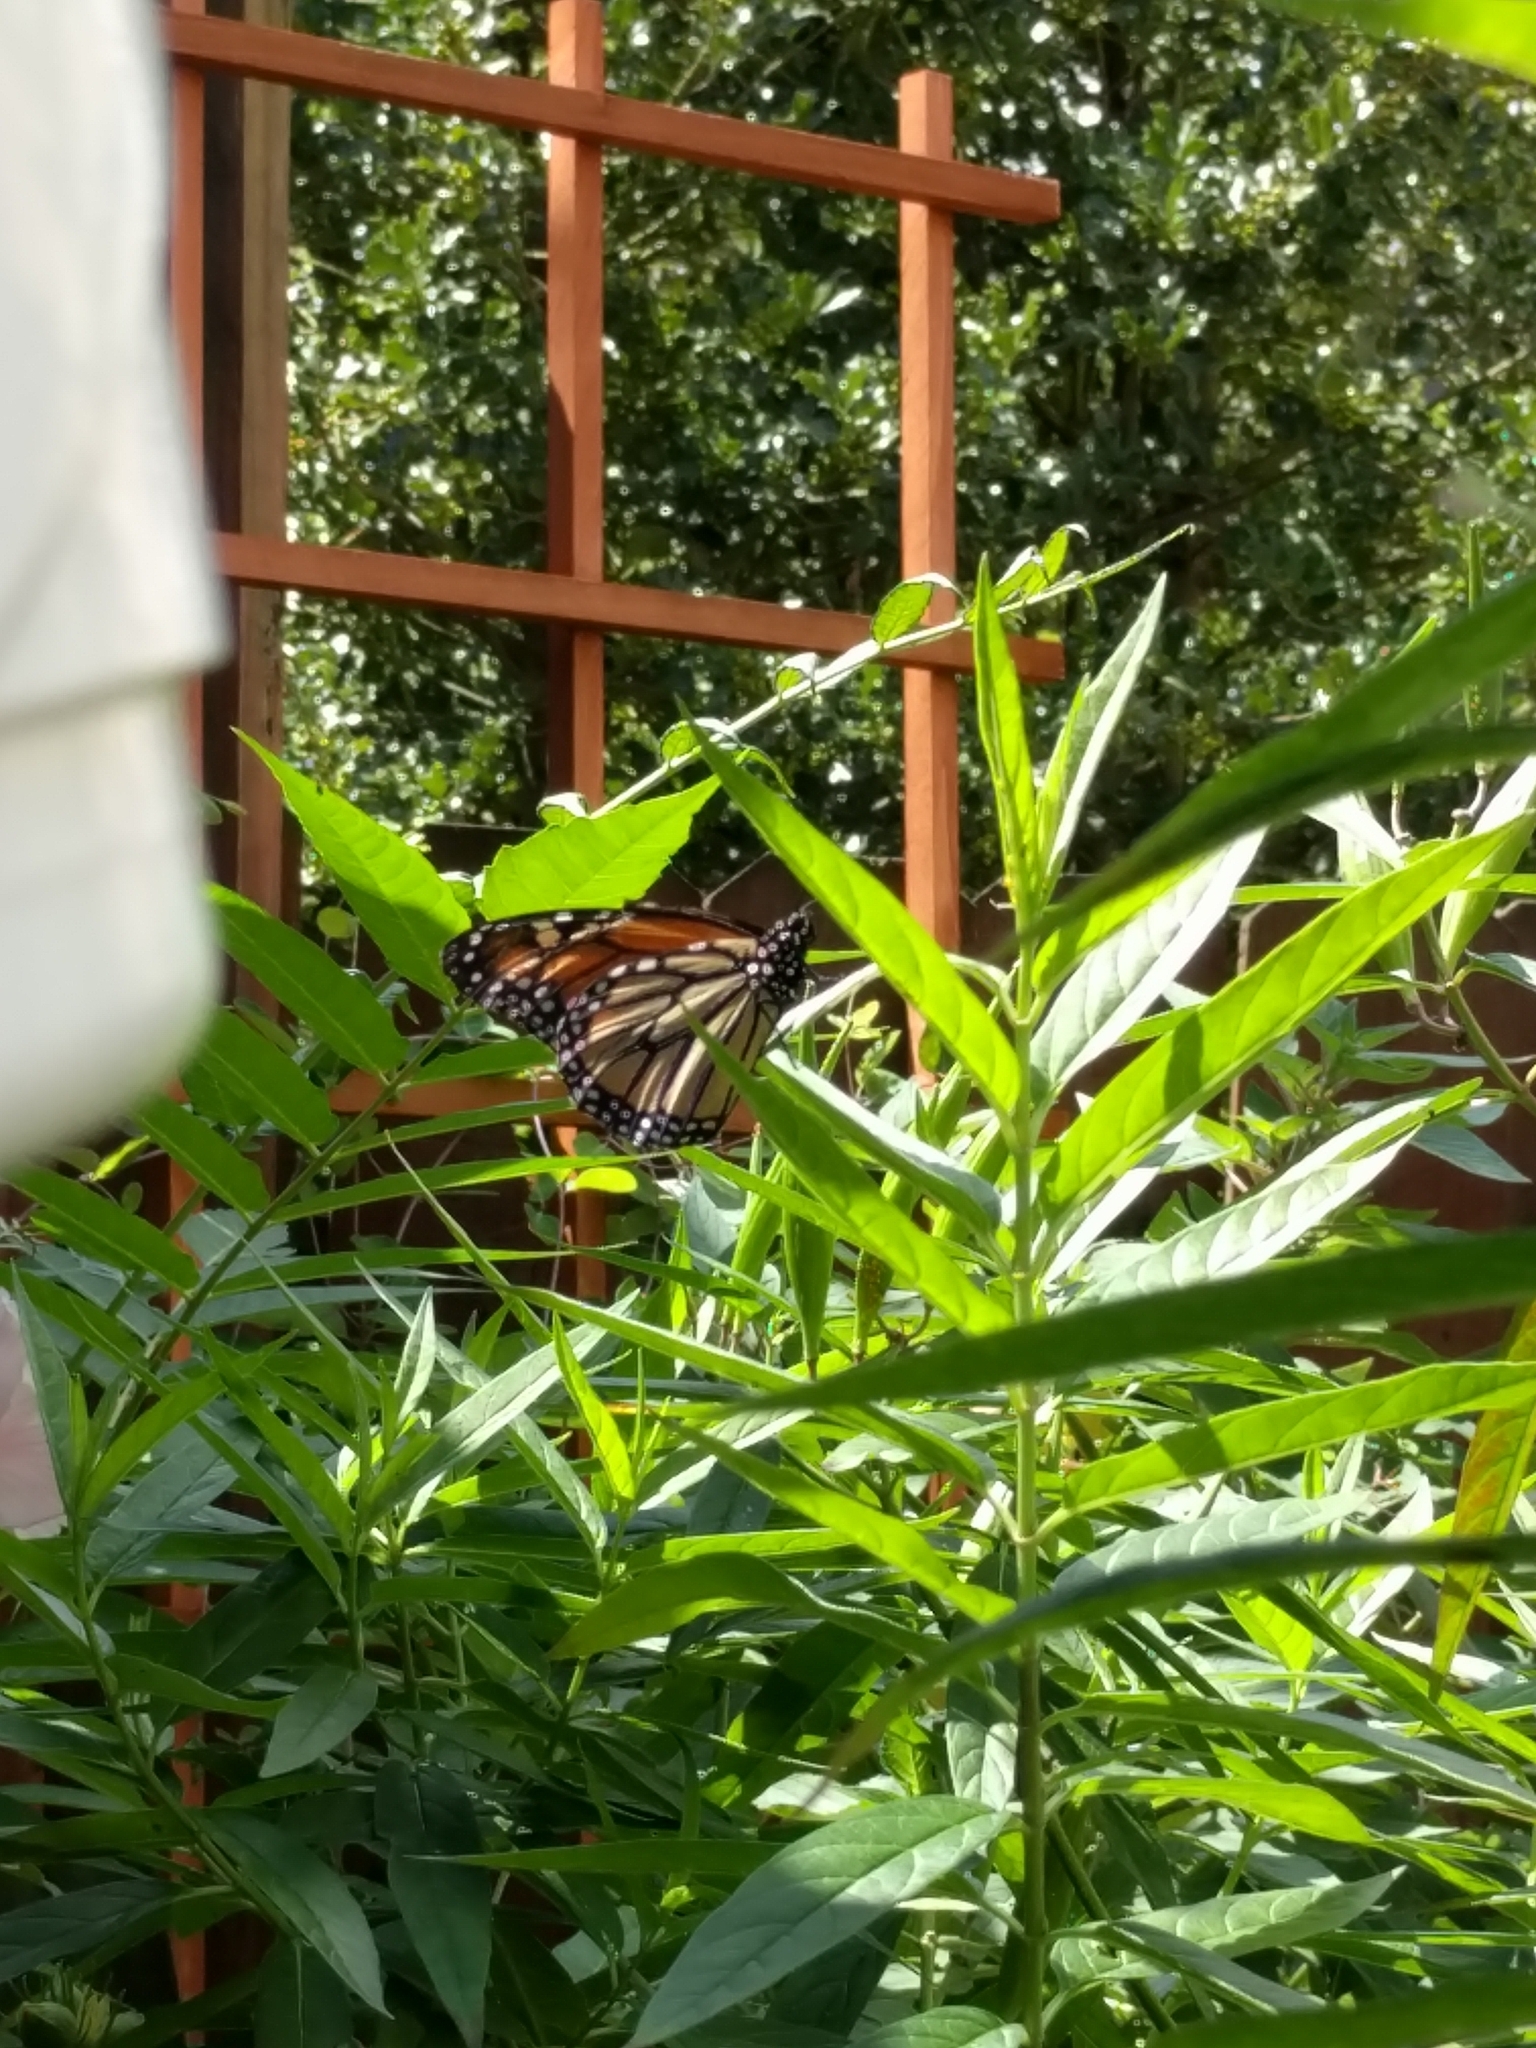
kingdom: Animalia
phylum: Arthropoda
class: Insecta
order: Lepidoptera
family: Nymphalidae
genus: Danaus
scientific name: Danaus plexippus
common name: Monarch
